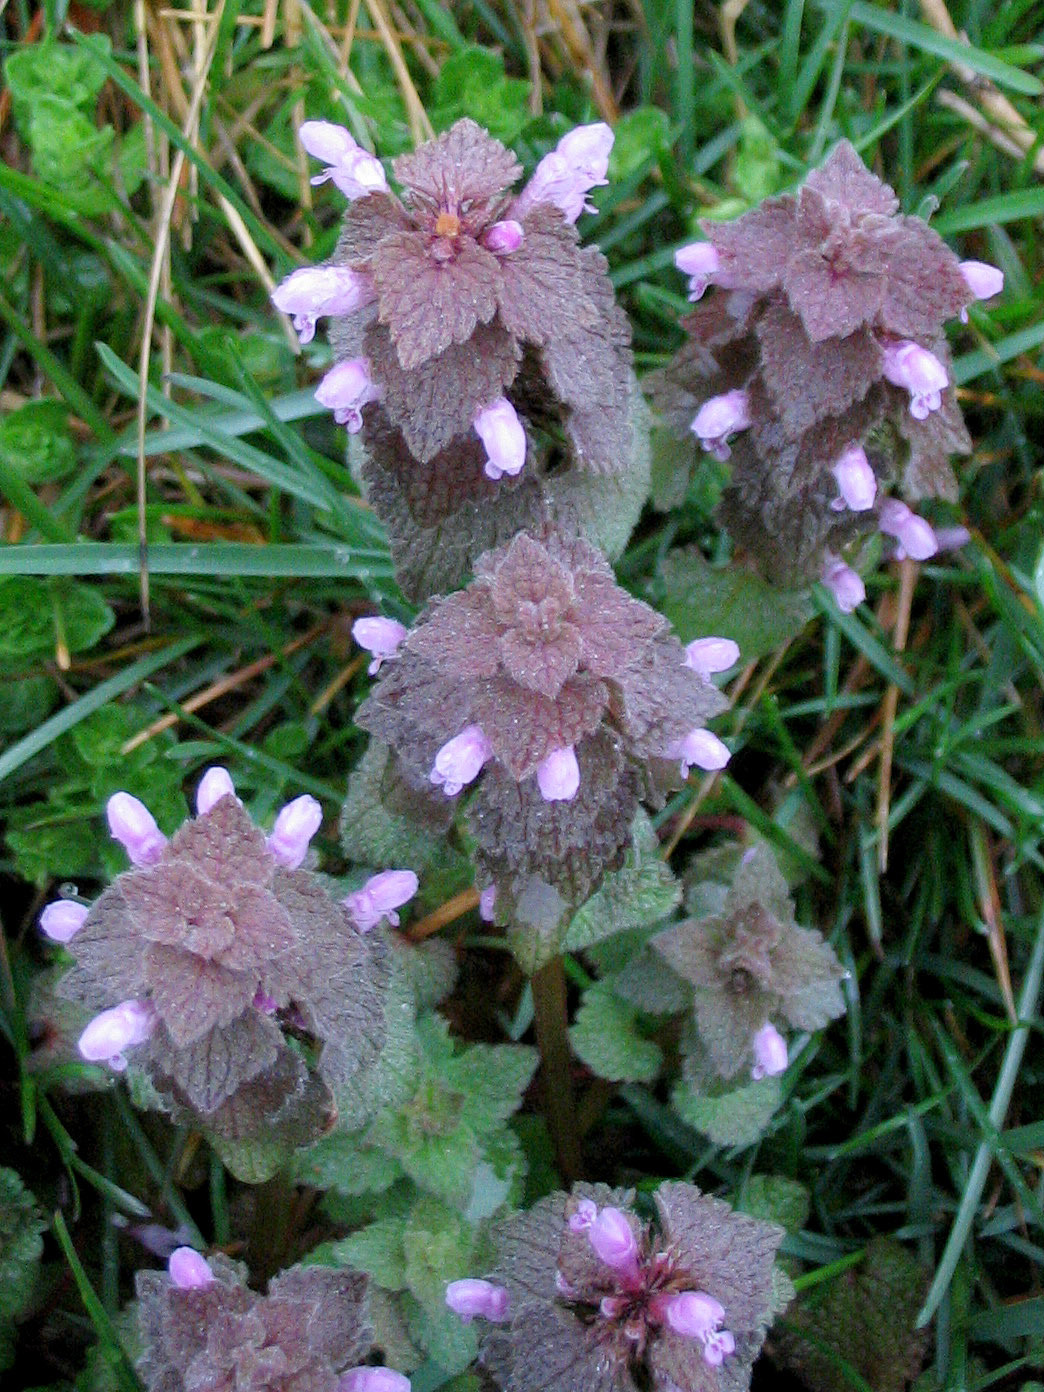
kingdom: Plantae
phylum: Tracheophyta
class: Magnoliopsida
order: Lamiales
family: Lamiaceae
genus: Lamium
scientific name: Lamium purpureum
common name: Red dead-nettle
